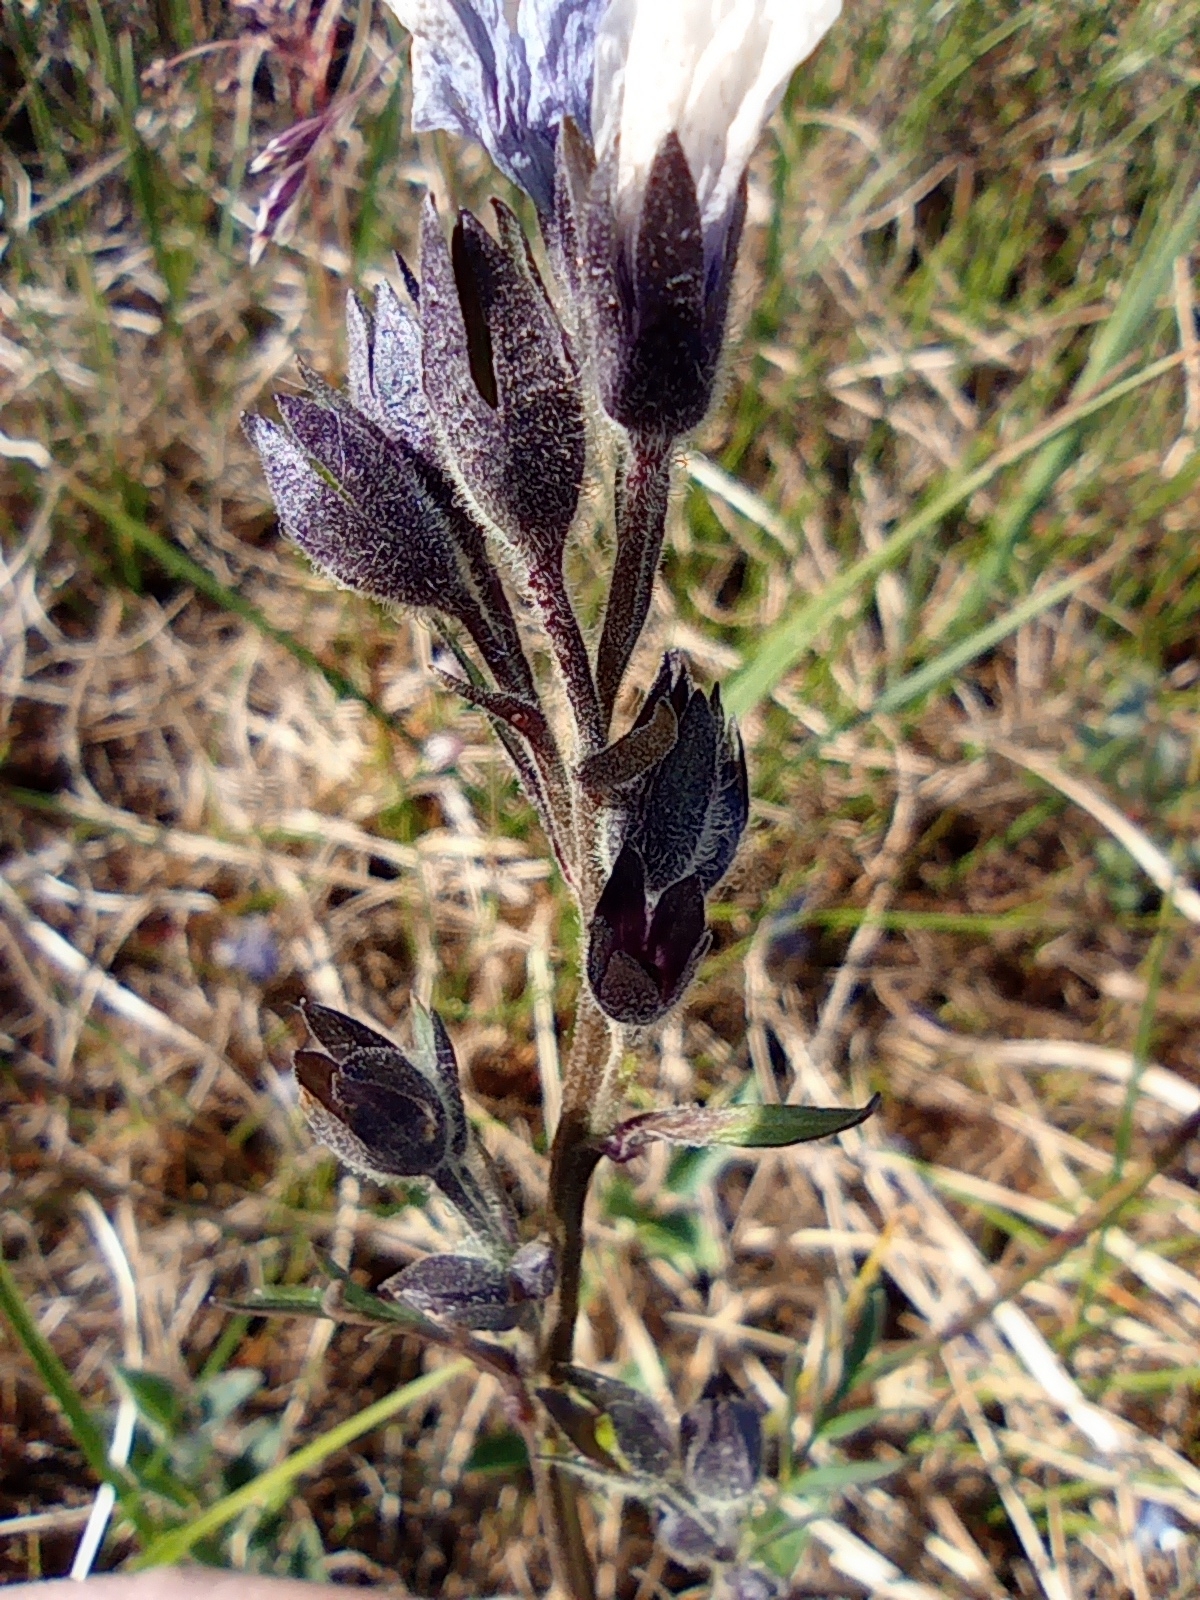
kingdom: Plantae
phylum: Tracheophyta
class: Magnoliopsida
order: Ericales
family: Polemoniaceae
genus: Polemonium
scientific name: Polemonium acutiflorum
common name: Tall jacob's-ladder
